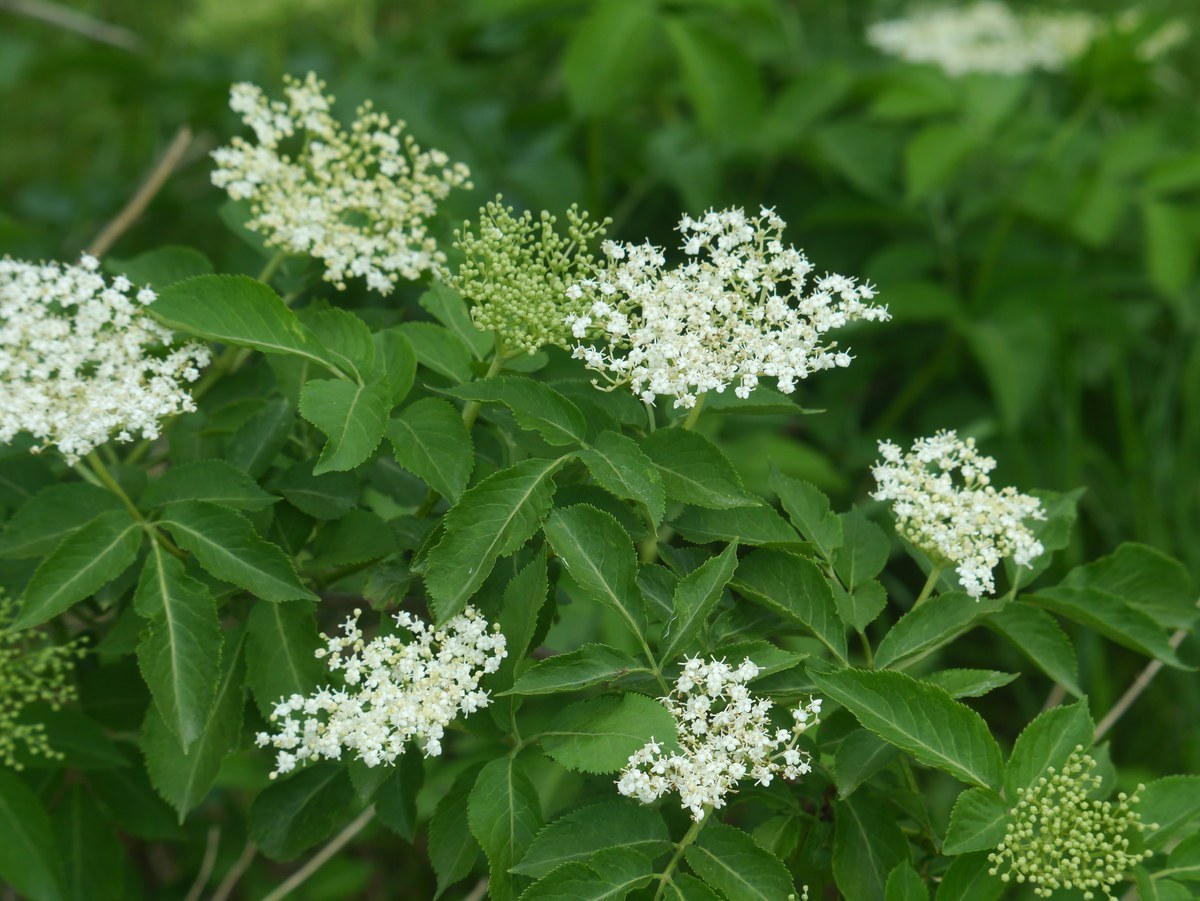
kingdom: Plantae
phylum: Tracheophyta
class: Magnoliopsida
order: Dipsacales
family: Viburnaceae
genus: Sambucus
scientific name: Sambucus nigra
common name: Elder
